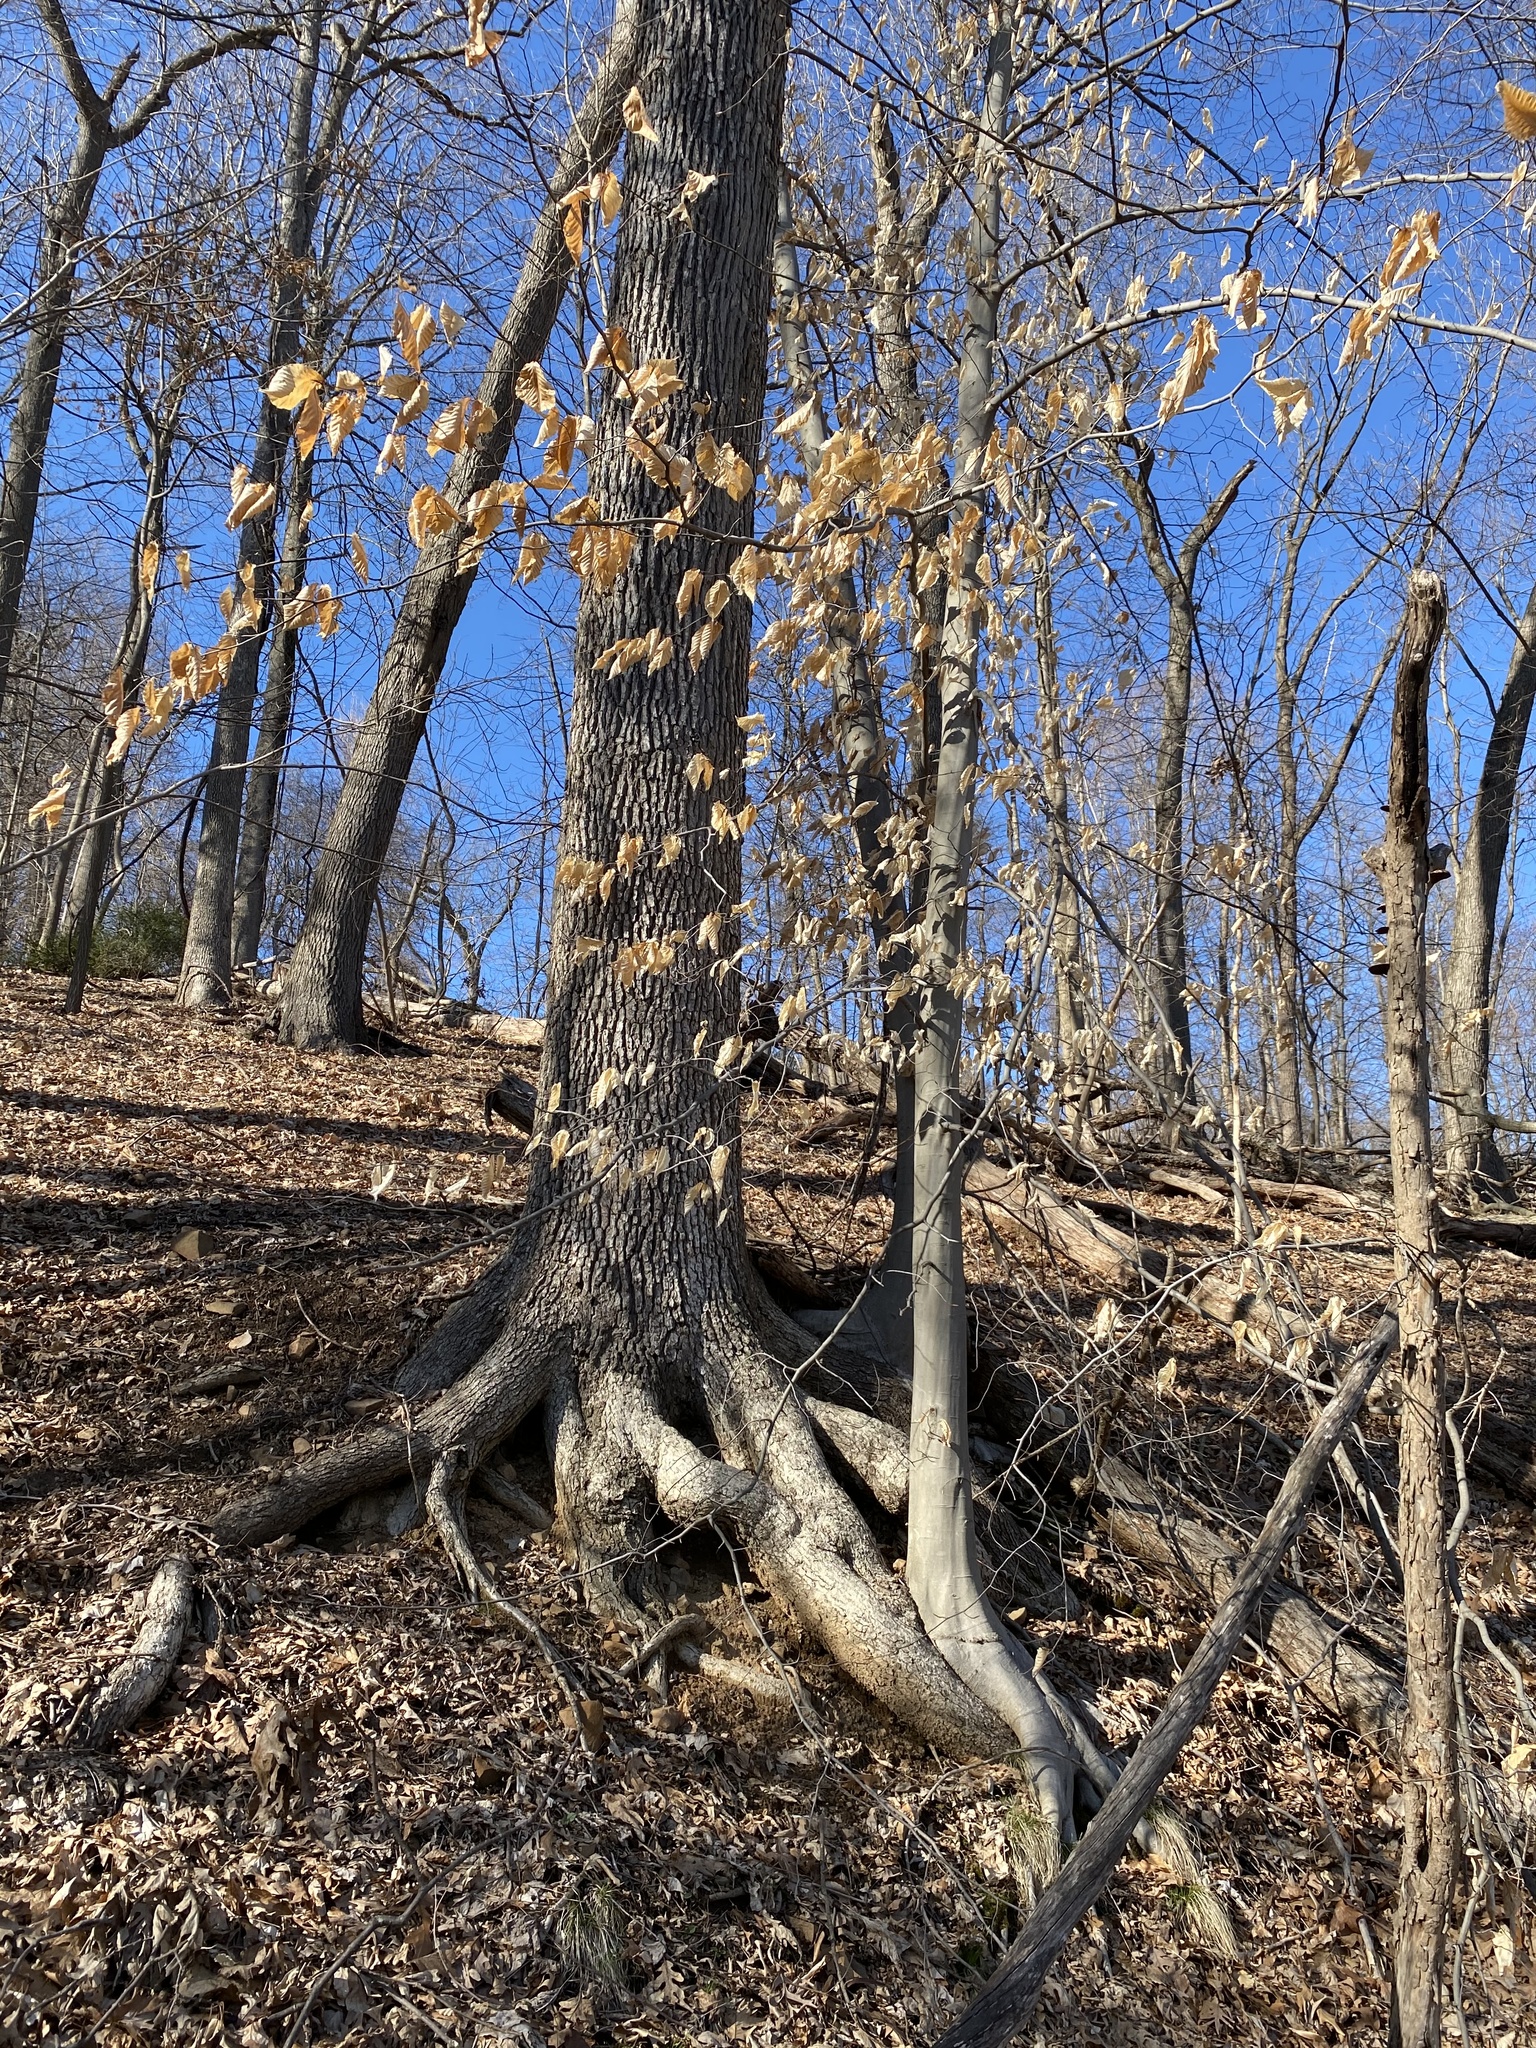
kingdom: Plantae
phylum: Tracheophyta
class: Magnoliopsida
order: Fagales
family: Fagaceae
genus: Fagus
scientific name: Fagus grandifolia
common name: American beech
